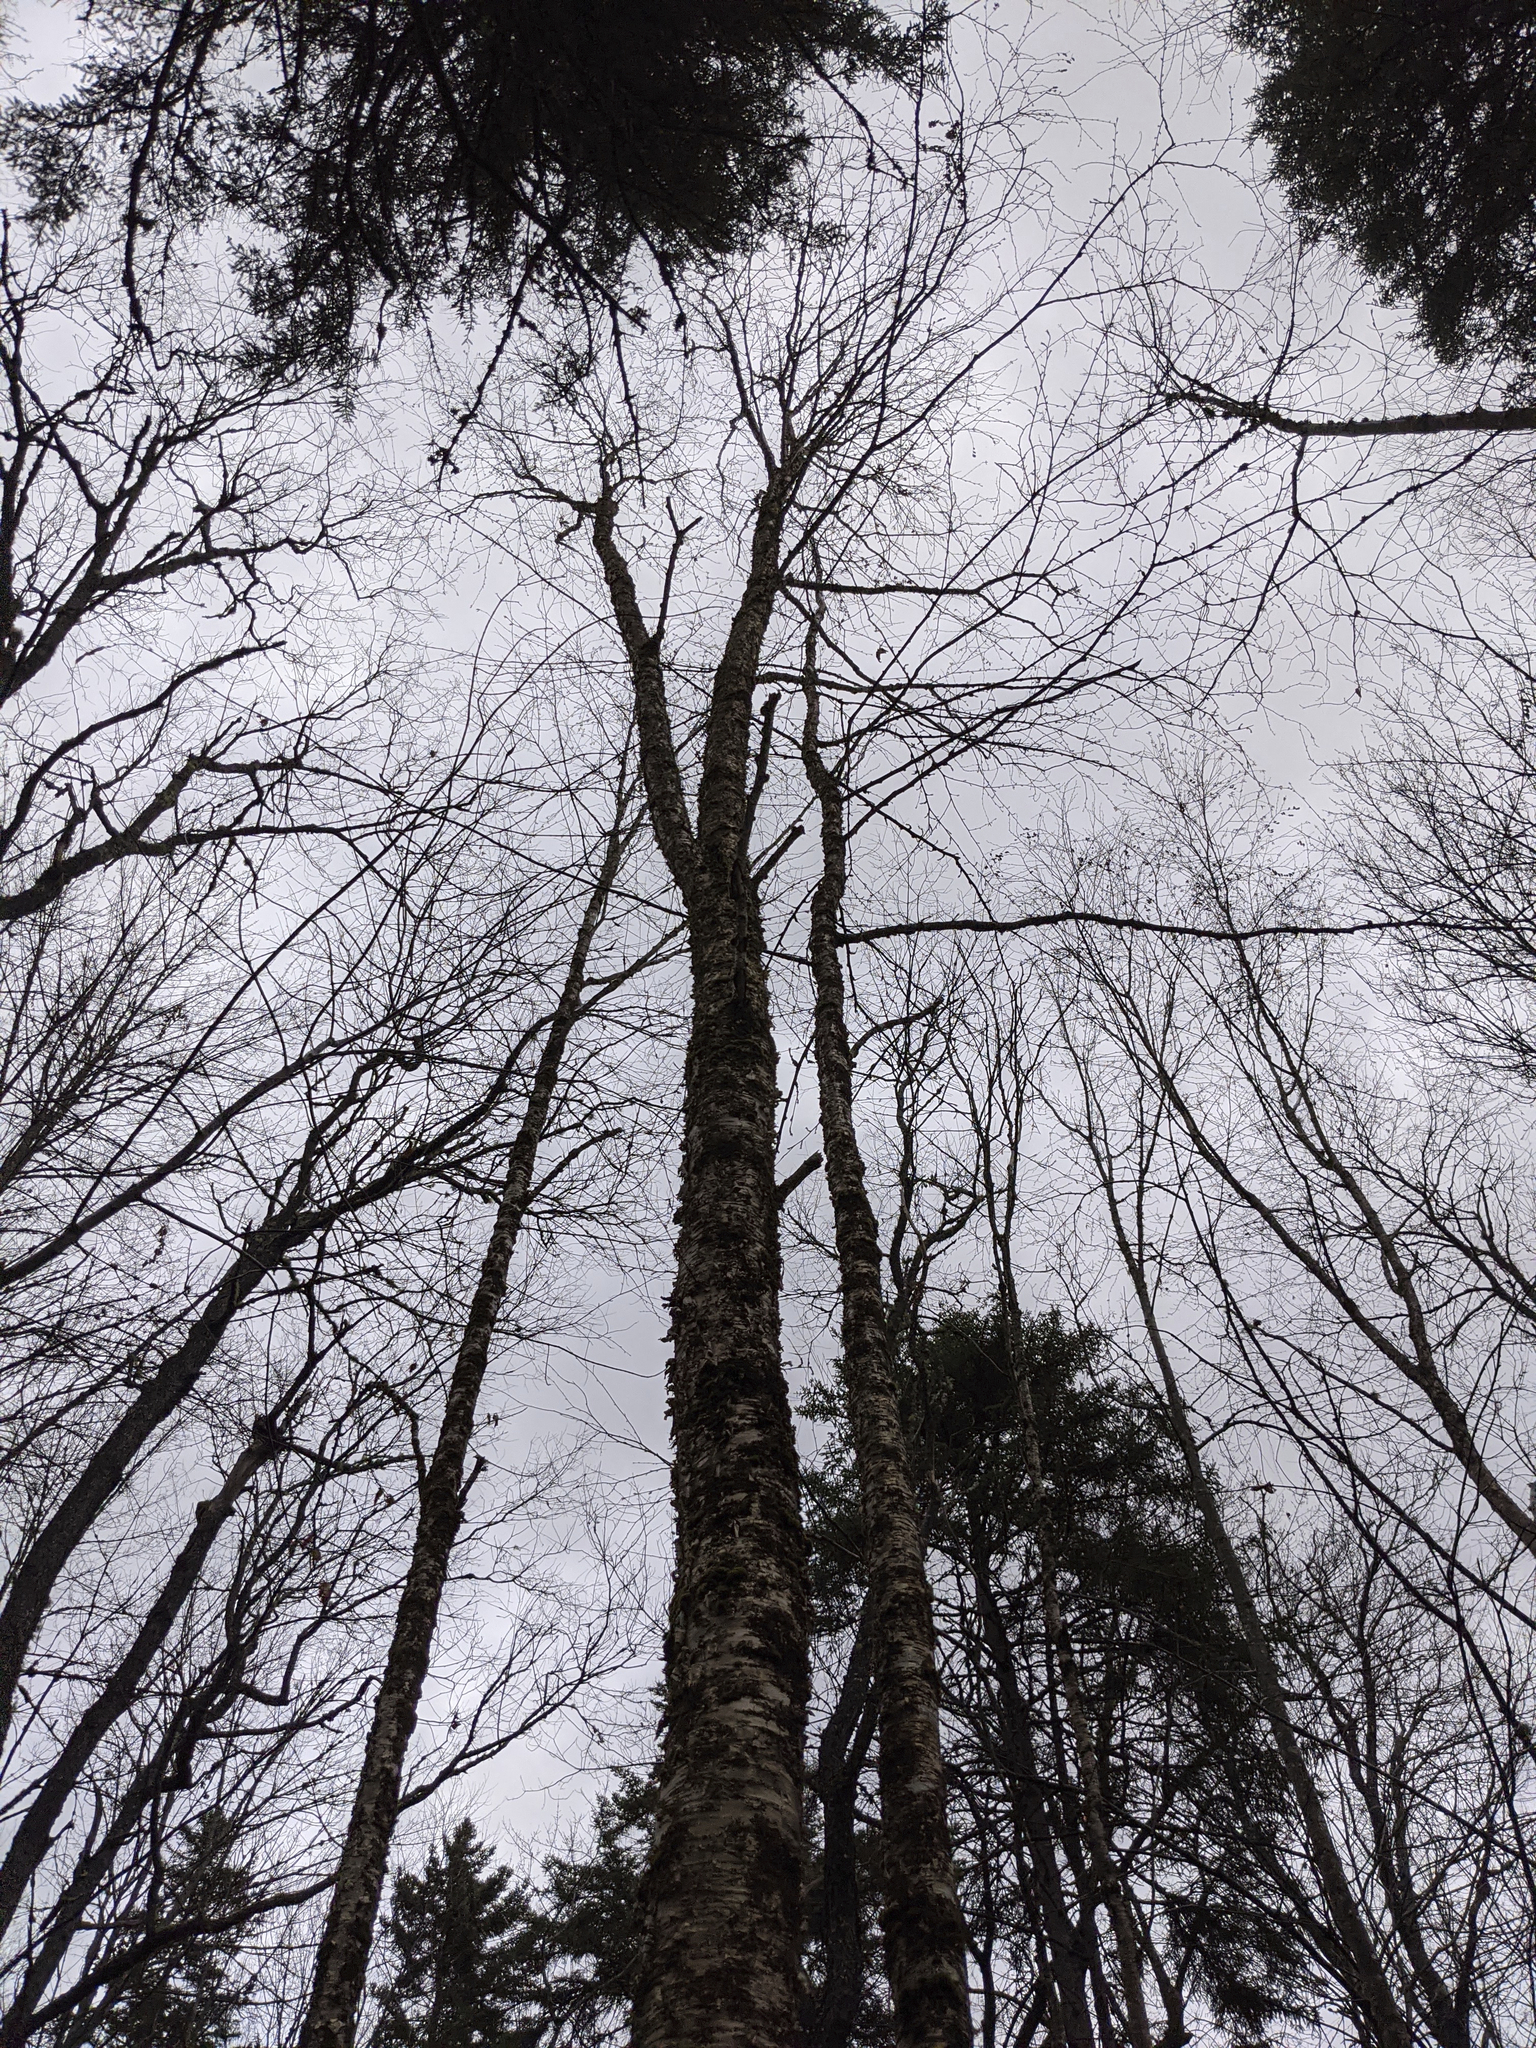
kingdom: Plantae
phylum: Tracheophyta
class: Magnoliopsida
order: Fagales
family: Betulaceae
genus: Betula
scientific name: Betula alleghaniensis
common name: Yellow birch
